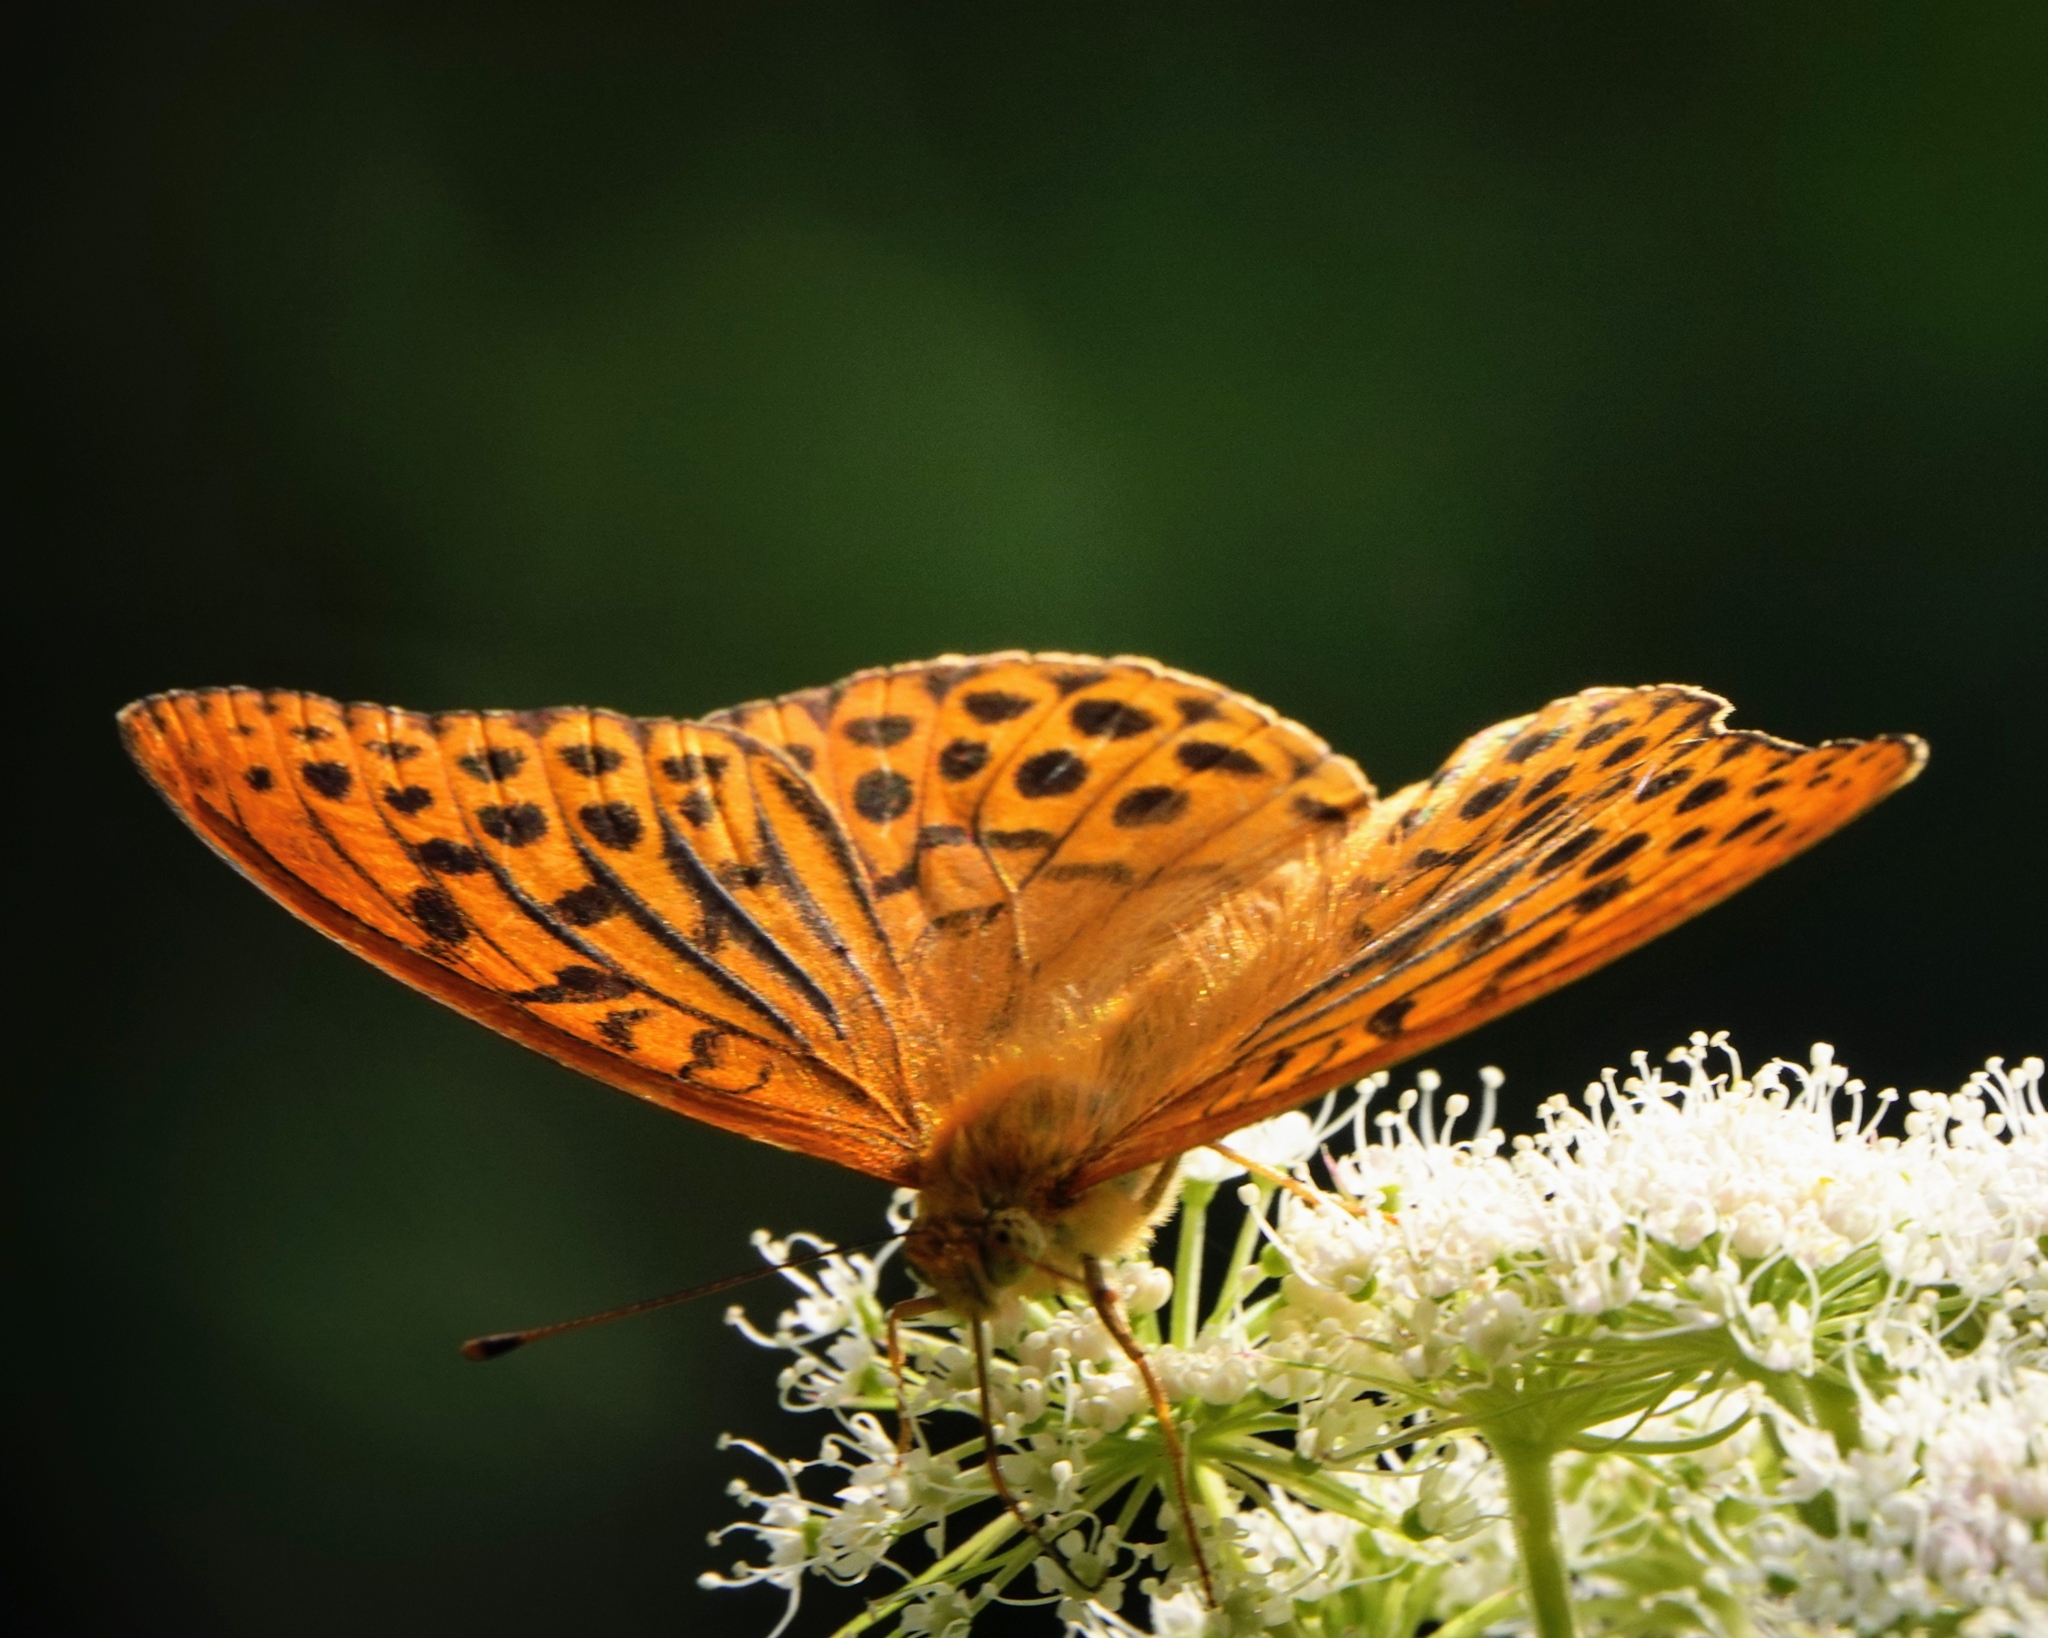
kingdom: Animalia
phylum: Arthropoda
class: Insecta
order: Lepidoptera
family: Nymphalidae
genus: Argynnis
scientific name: Argynnis paphia
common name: Silver-washed fritillary
